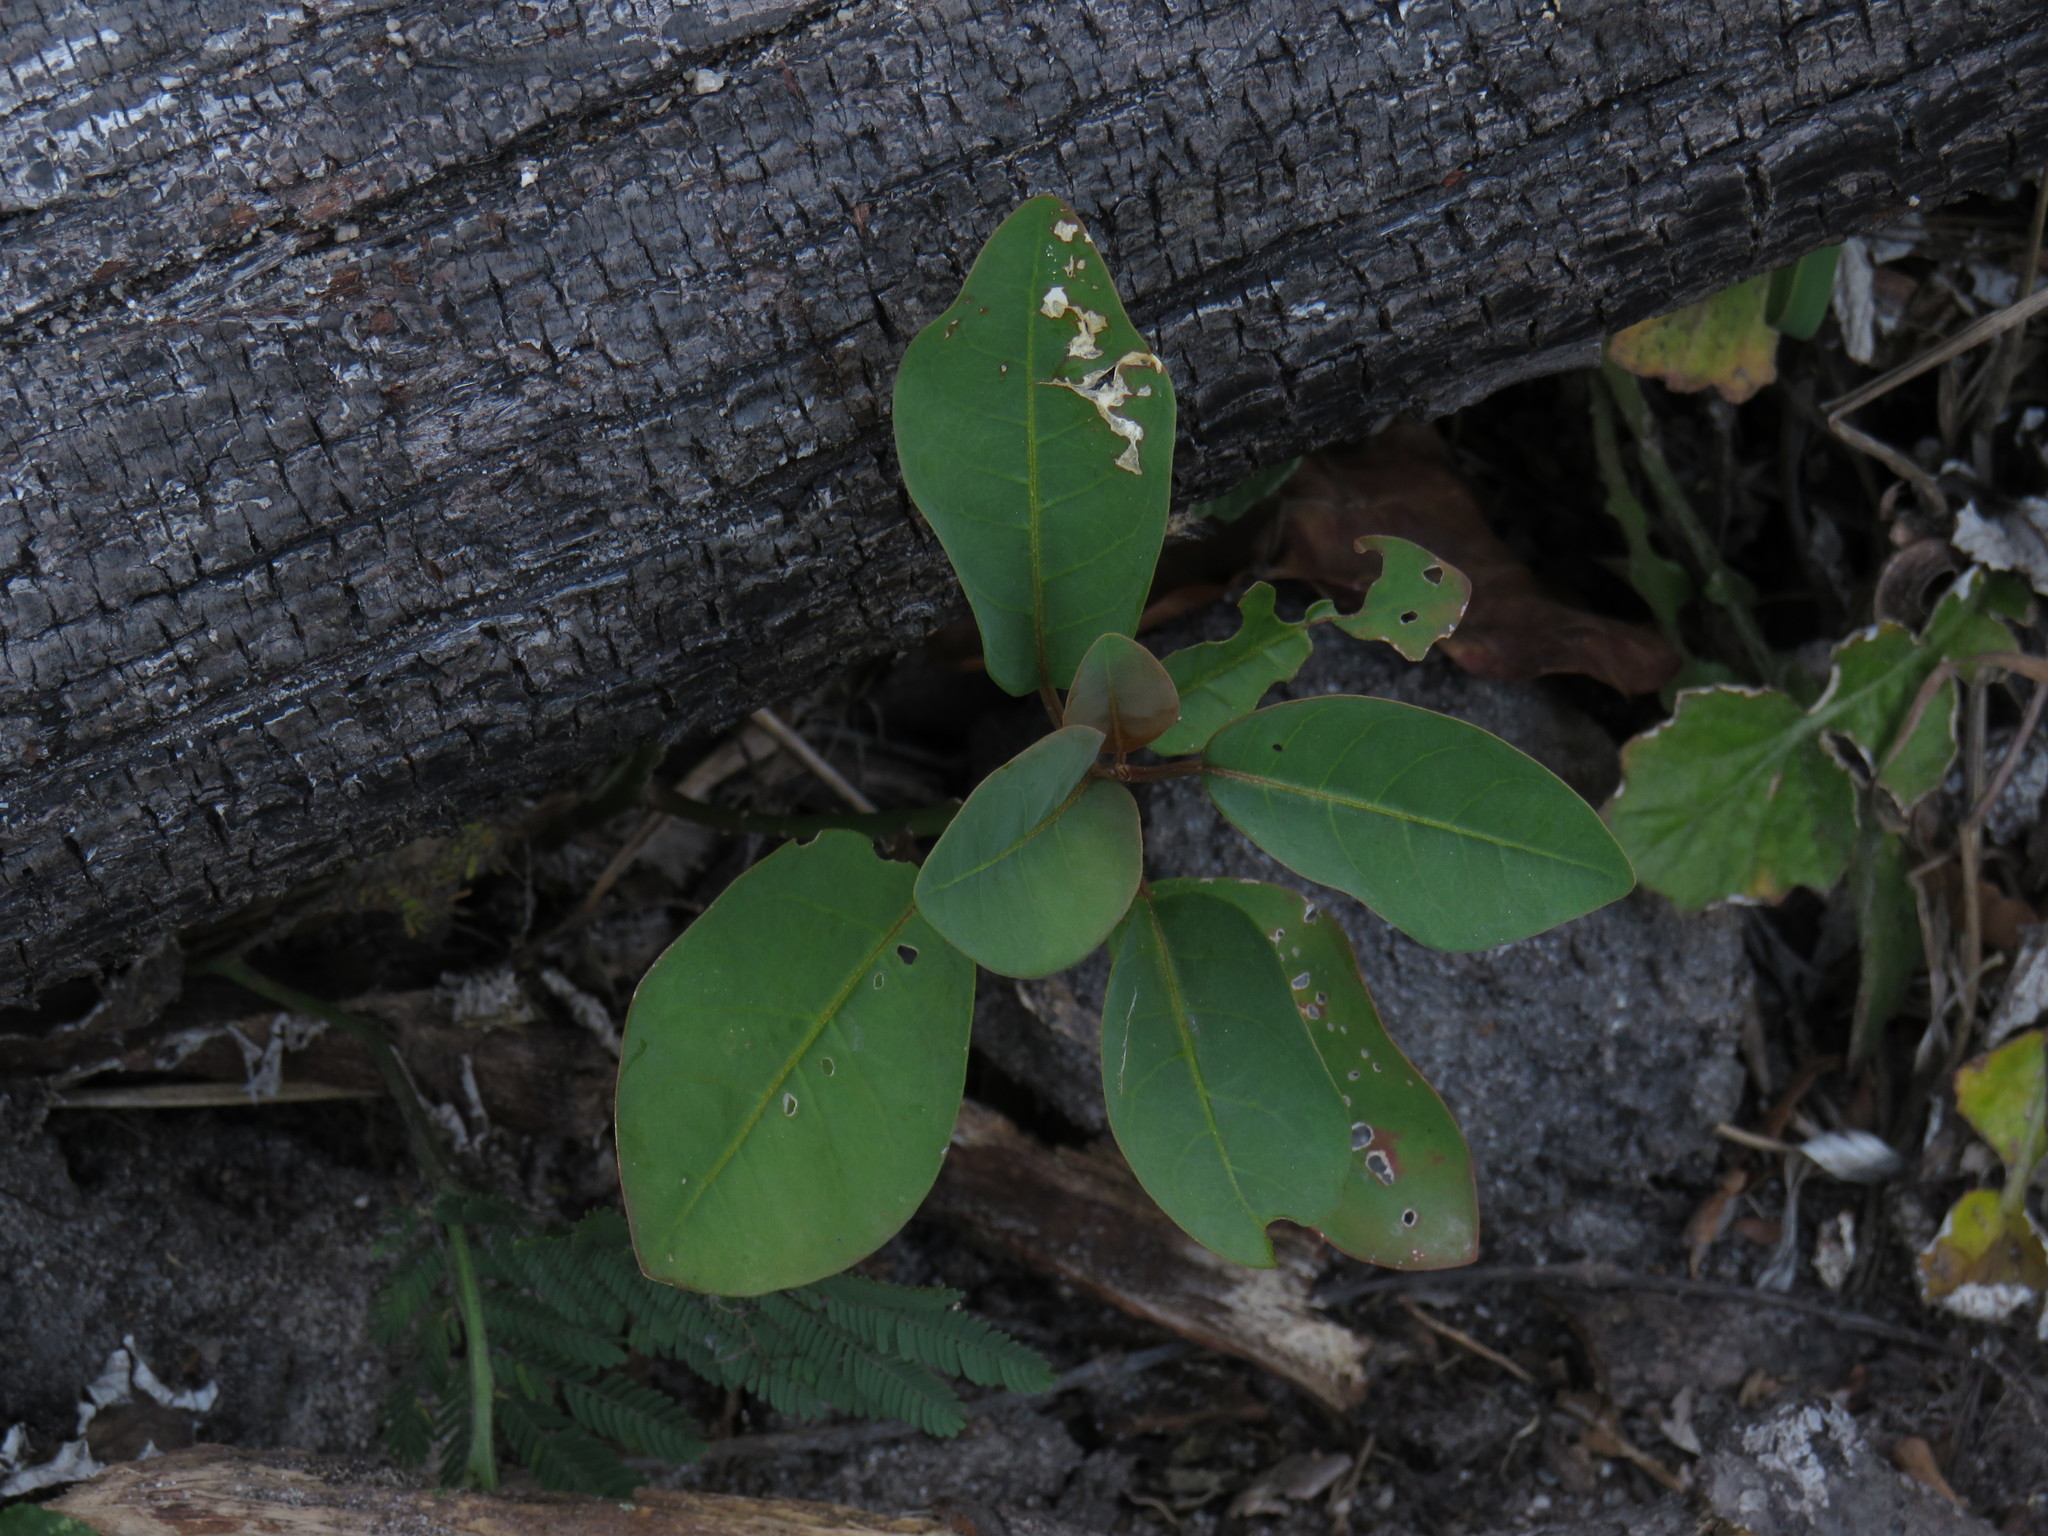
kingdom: Plantae
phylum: Tracheophyta
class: Magnoliopsida
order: Metteniusales
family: Metteniusaceae
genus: Apodytes
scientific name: Apodytes dimidiata
